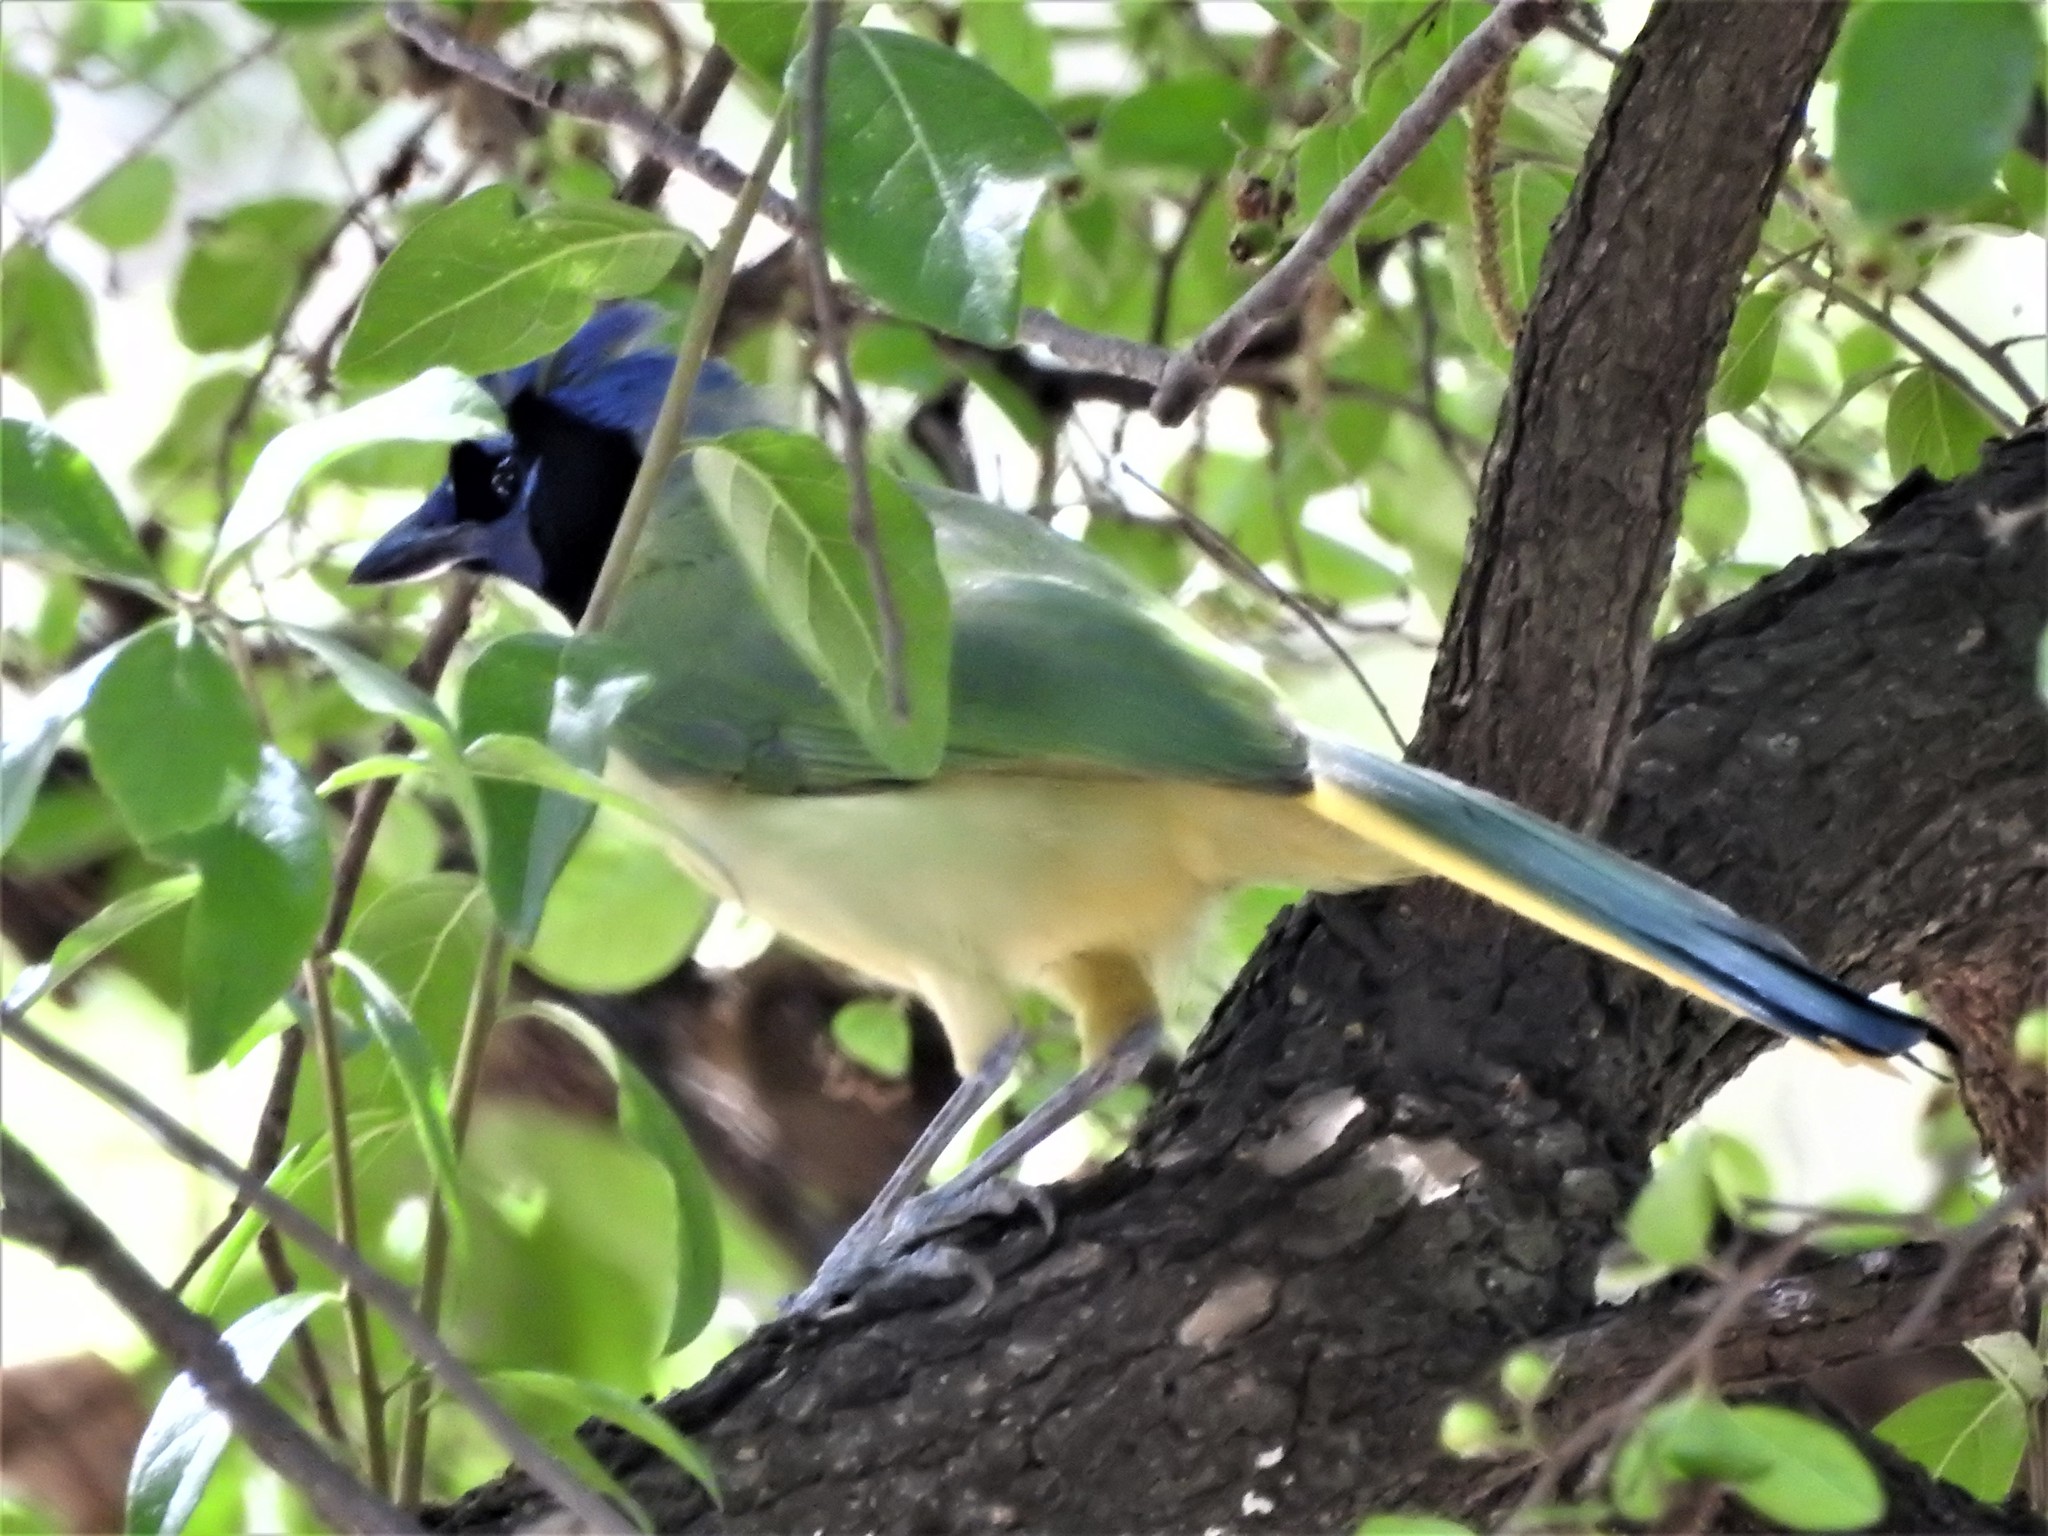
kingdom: Animalia
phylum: Chordata
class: Aves
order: Passeriformes
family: Corvidae
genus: Cyanocorax
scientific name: Cyanocorax yncas
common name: Green jay
